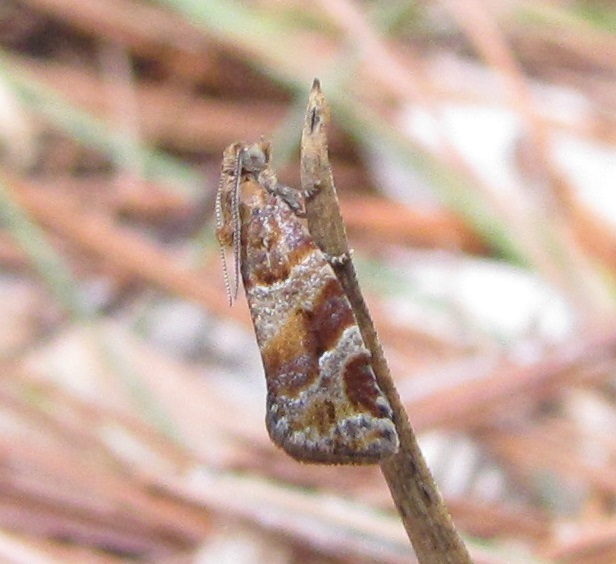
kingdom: Animalia
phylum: Arthropoda
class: Insecta
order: Lepidoptera
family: Tortricidae
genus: Argyrotaenia
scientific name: Argyrotaenia pinatubana
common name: Pine tube moth
